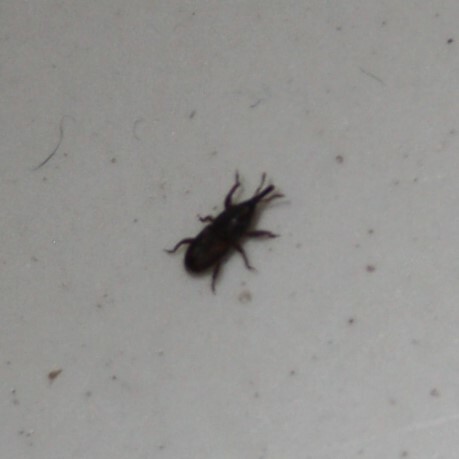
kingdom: Animalia
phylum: Arthropoda
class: Insecta
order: Coleoptera
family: Dryophthoridae
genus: Sitophilus
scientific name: Sitophilus
